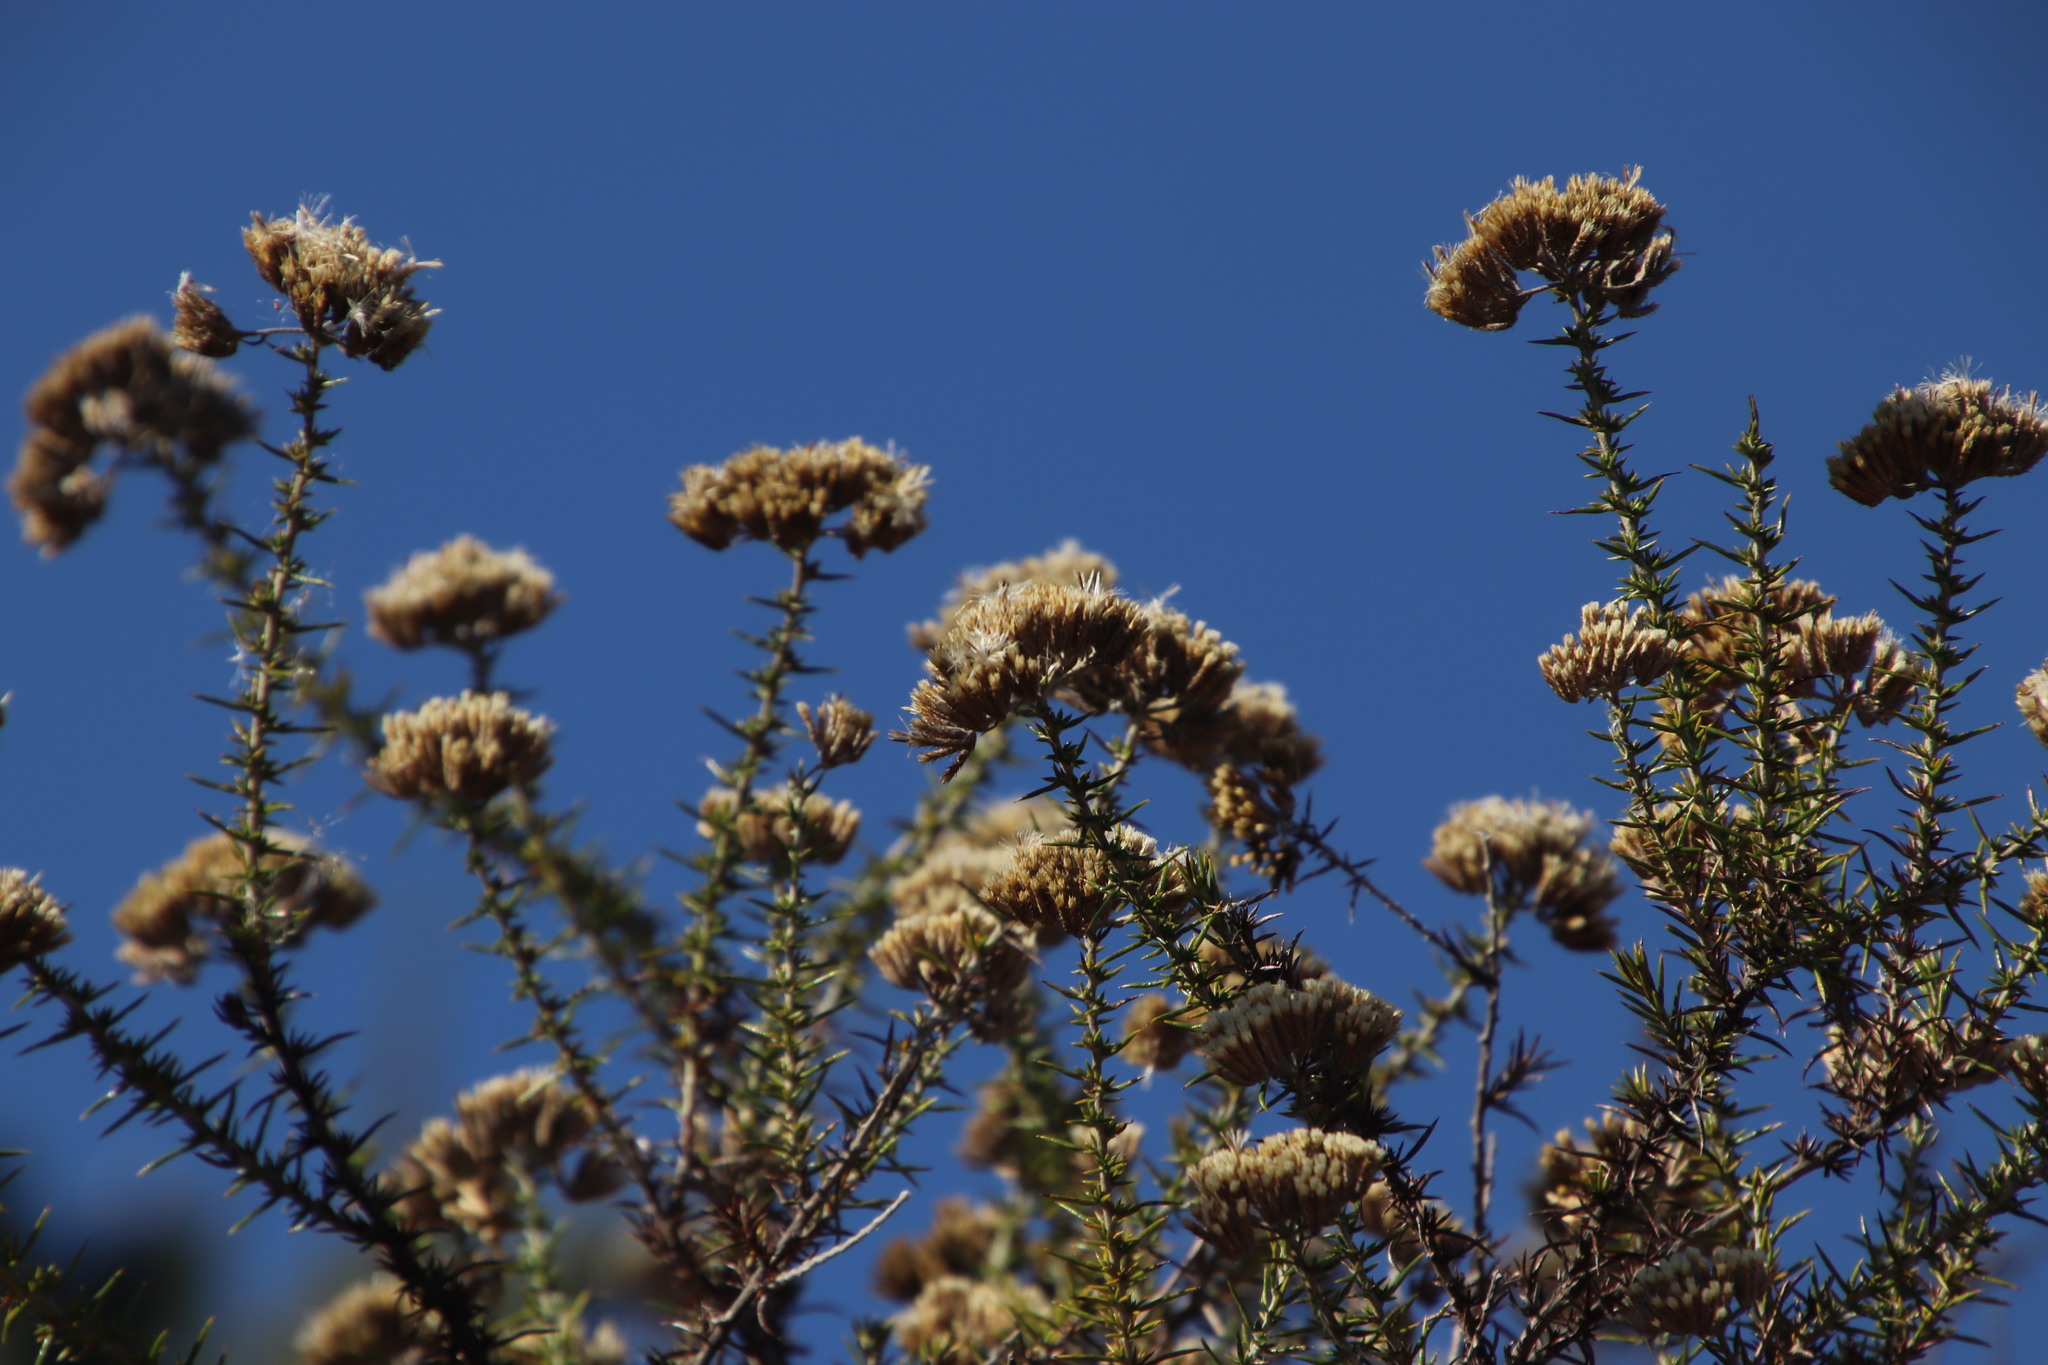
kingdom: Plantae
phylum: Tracheophyta
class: Magnoliopsida
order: Asterales
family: Asteraceae
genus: Metalasia
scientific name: Metalasia densa
